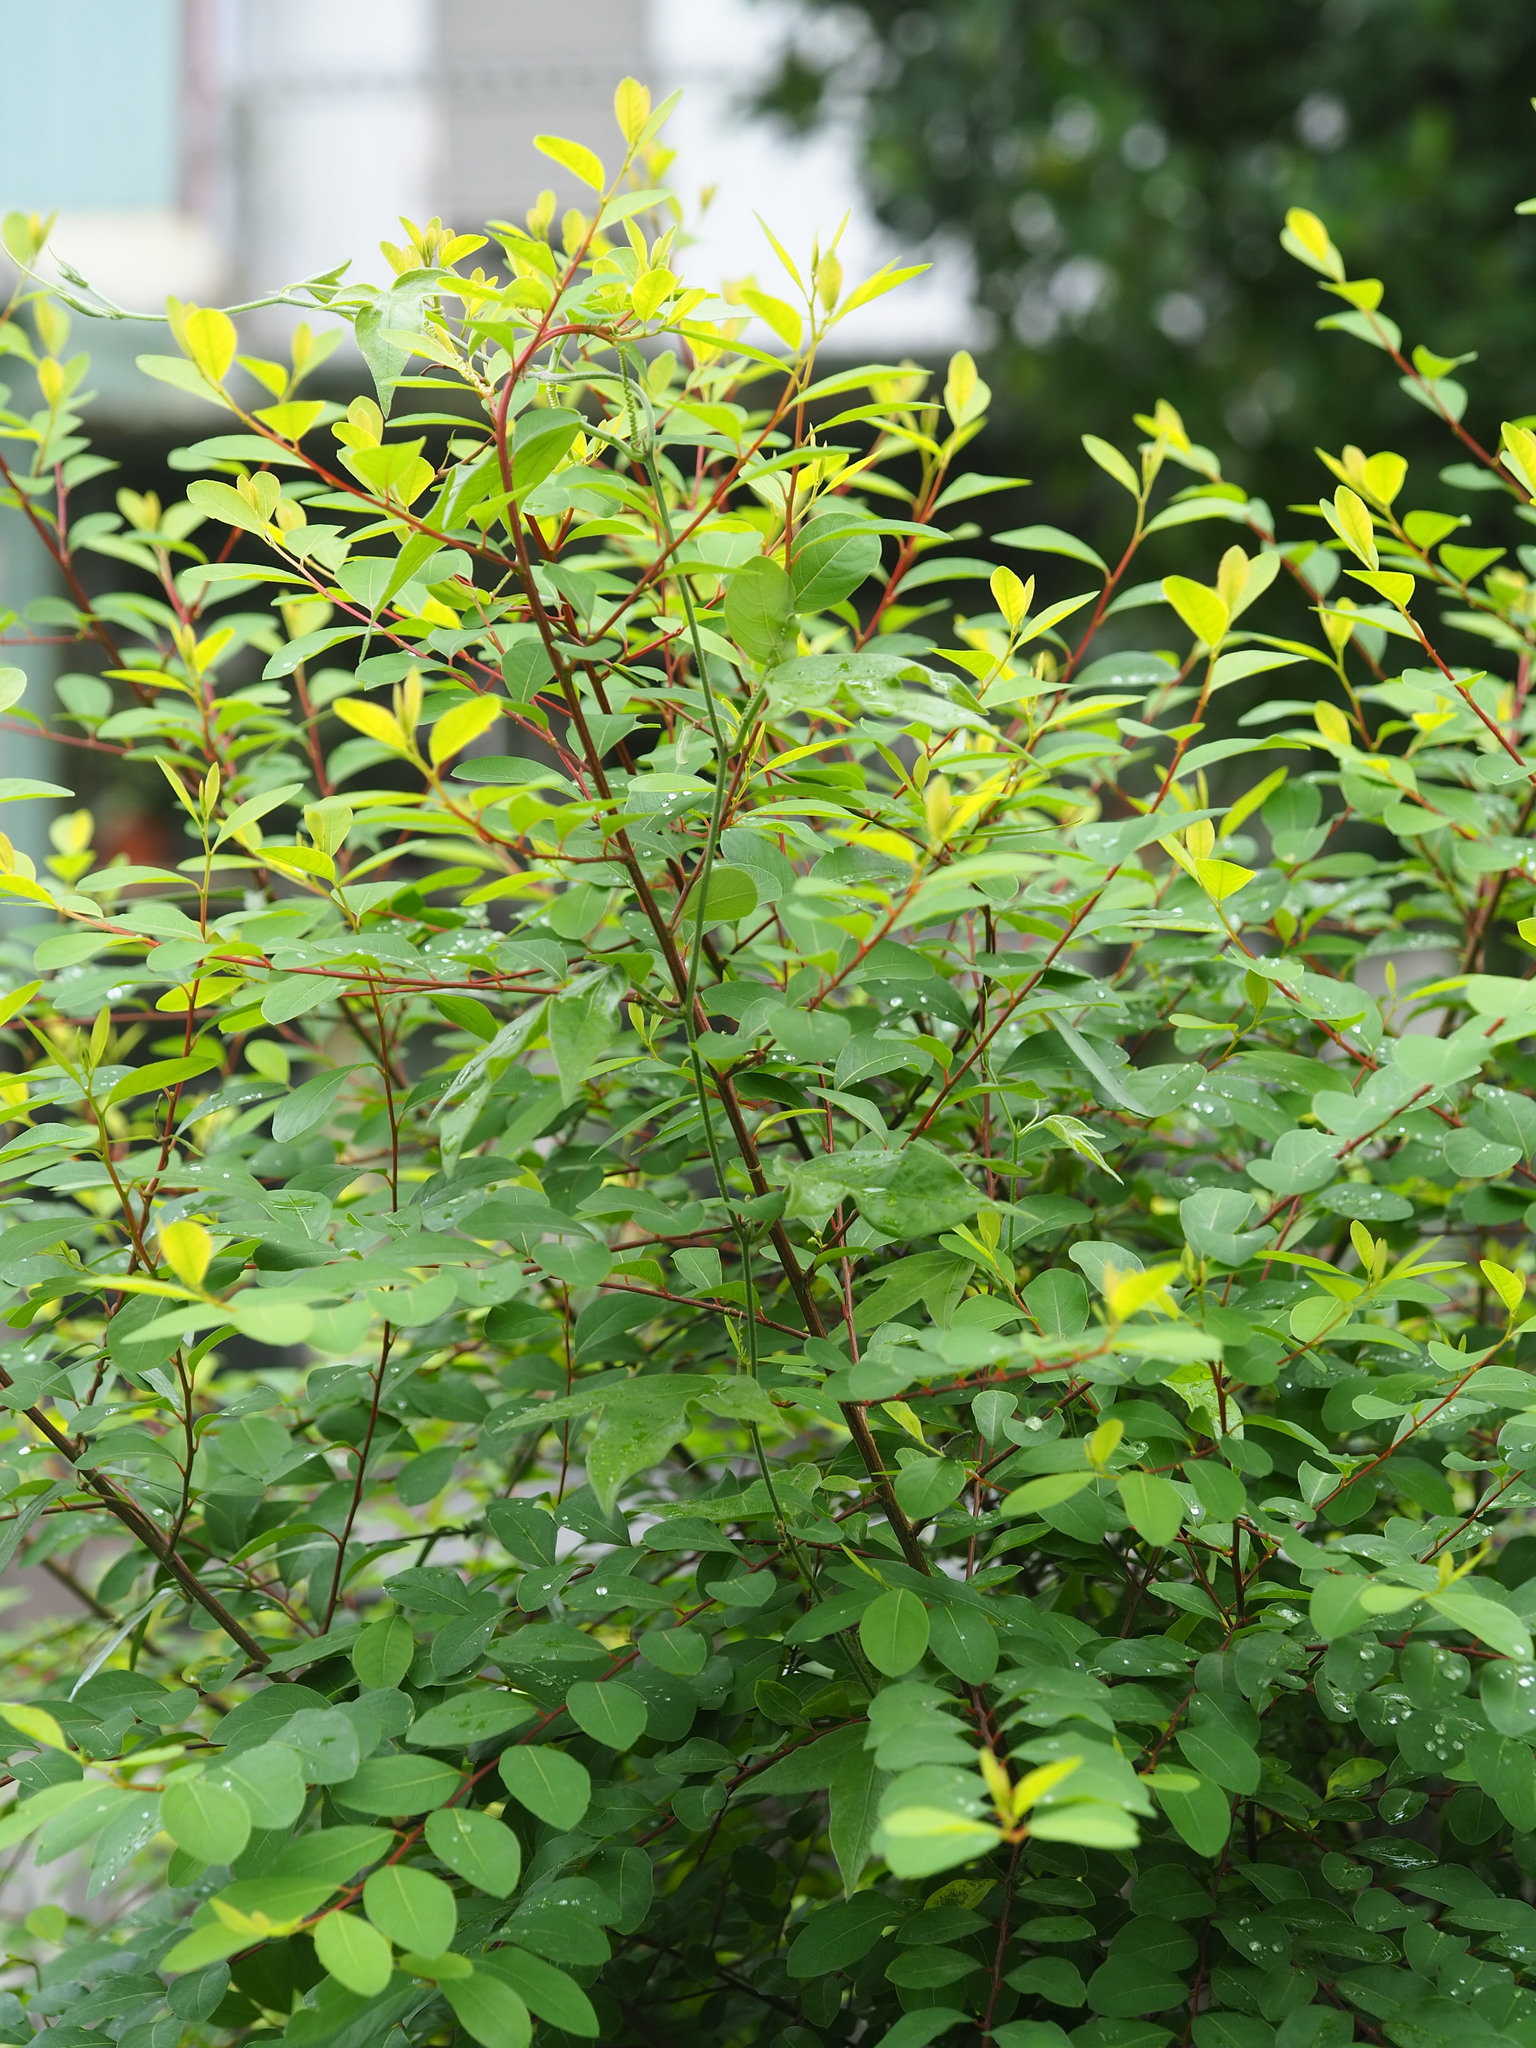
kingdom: Plantae
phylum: Tracheophyta
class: Magnoliopsida
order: Malpighiales
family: Phyllanthaceae
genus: Flueggea
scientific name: Flueggea virosa
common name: Common bushweed
